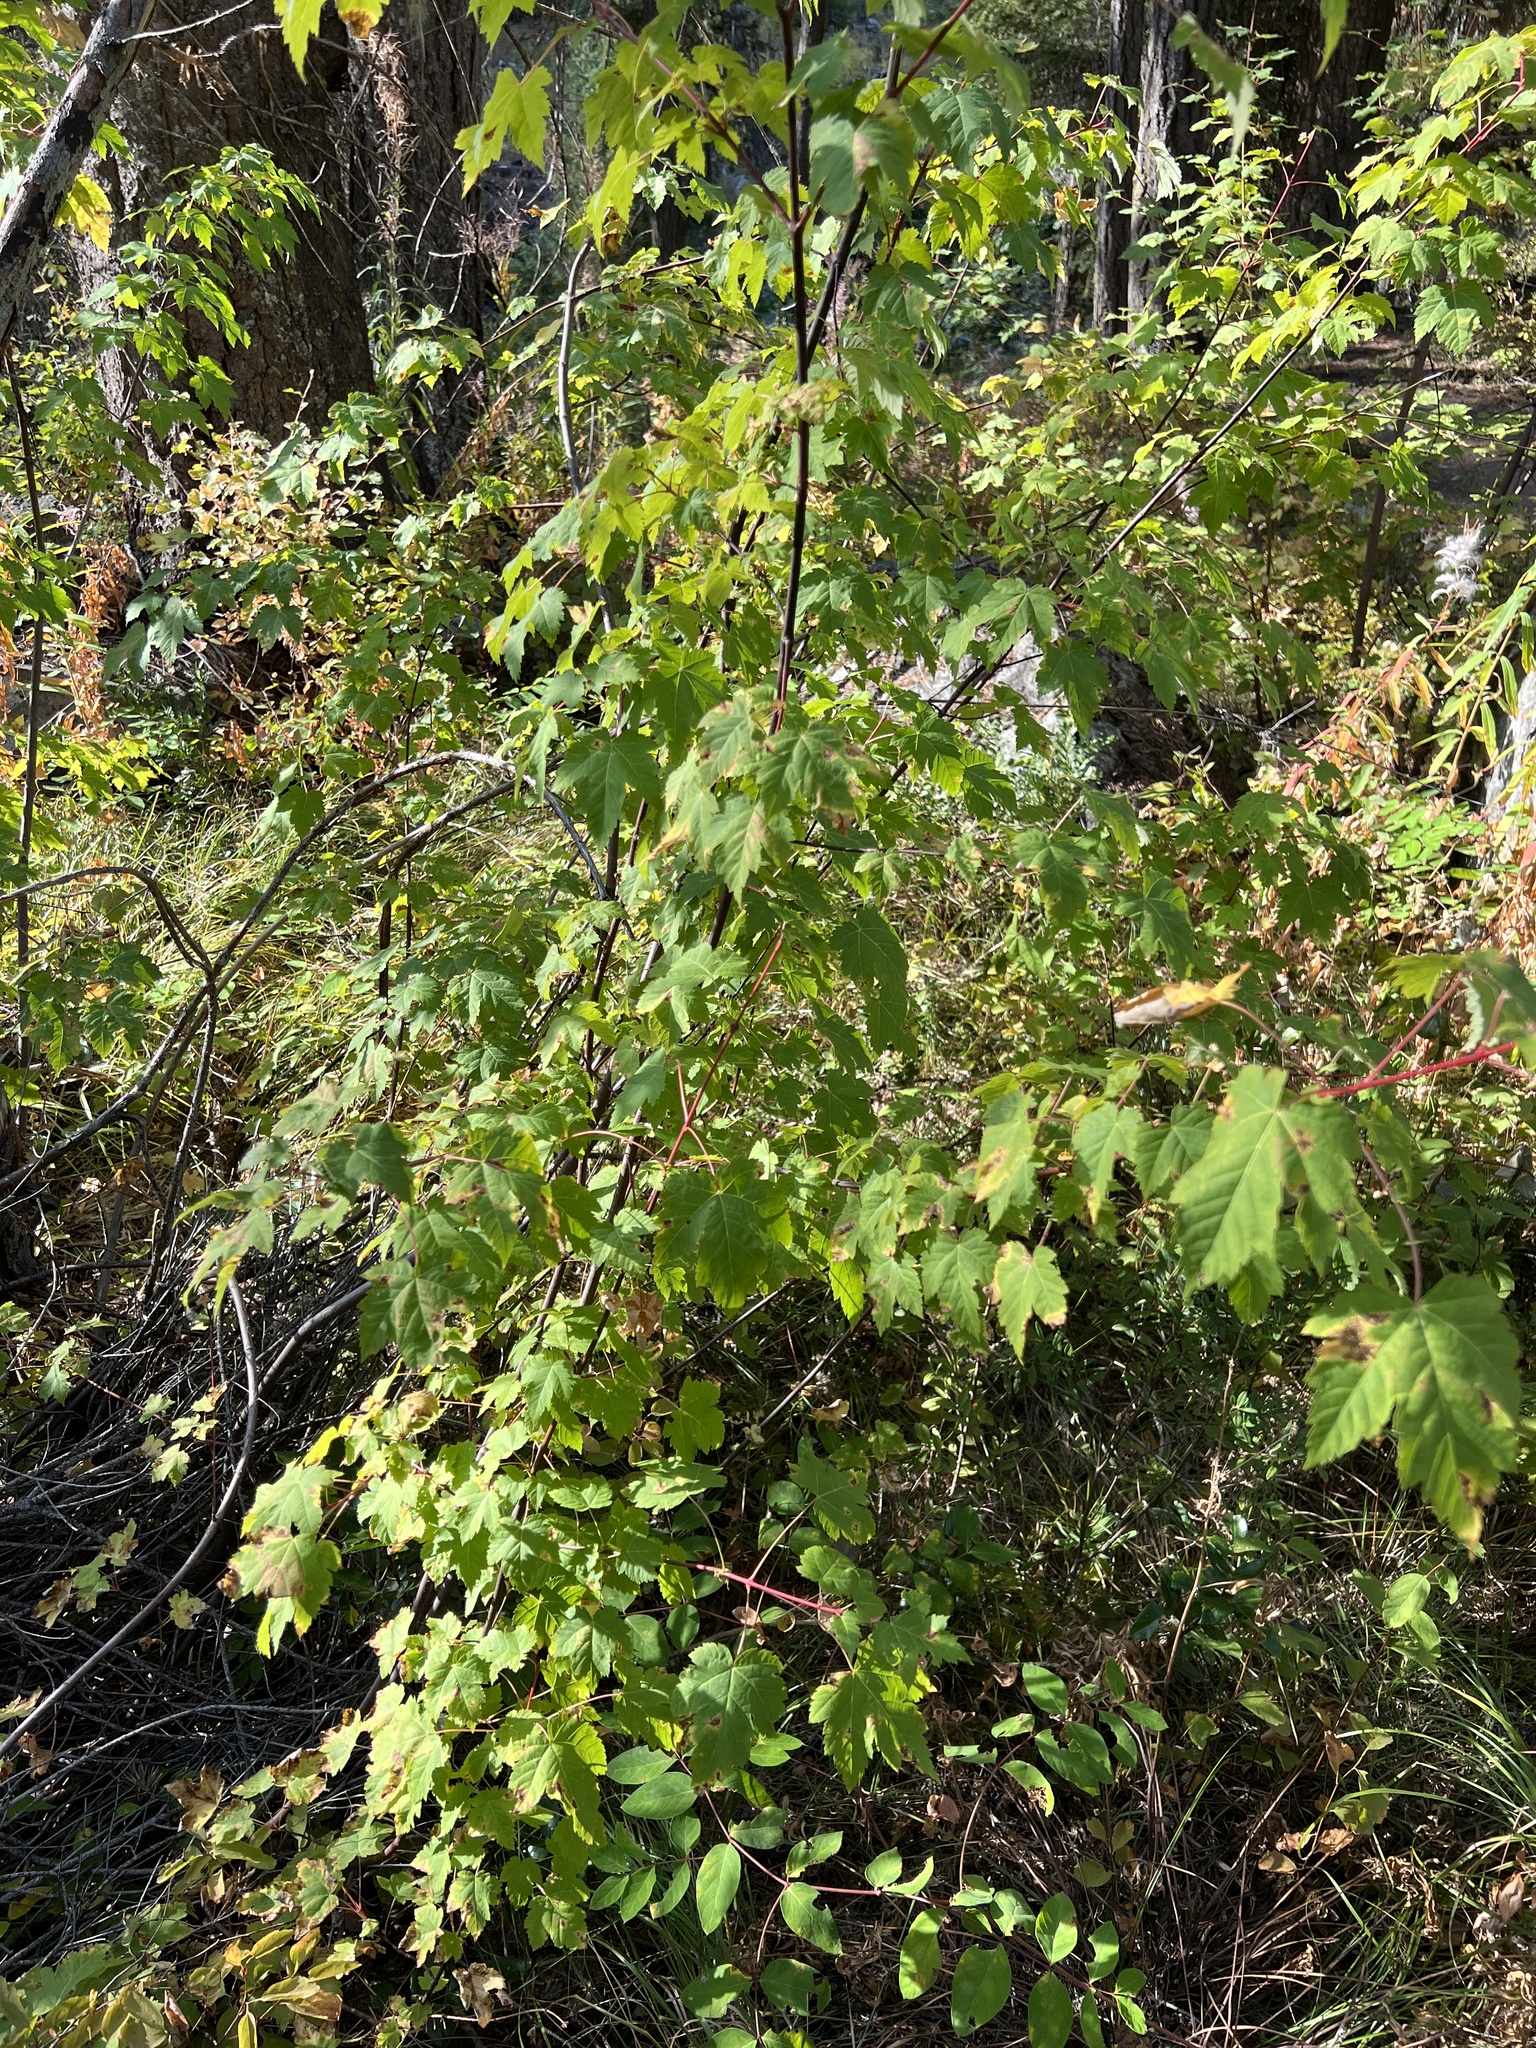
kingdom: Plantae
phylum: Tracheophyta
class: Magnoliopsida
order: Sapindales
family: Sapindaceae
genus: Acer
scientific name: Acer glabrum
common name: Rocky mountain maple
